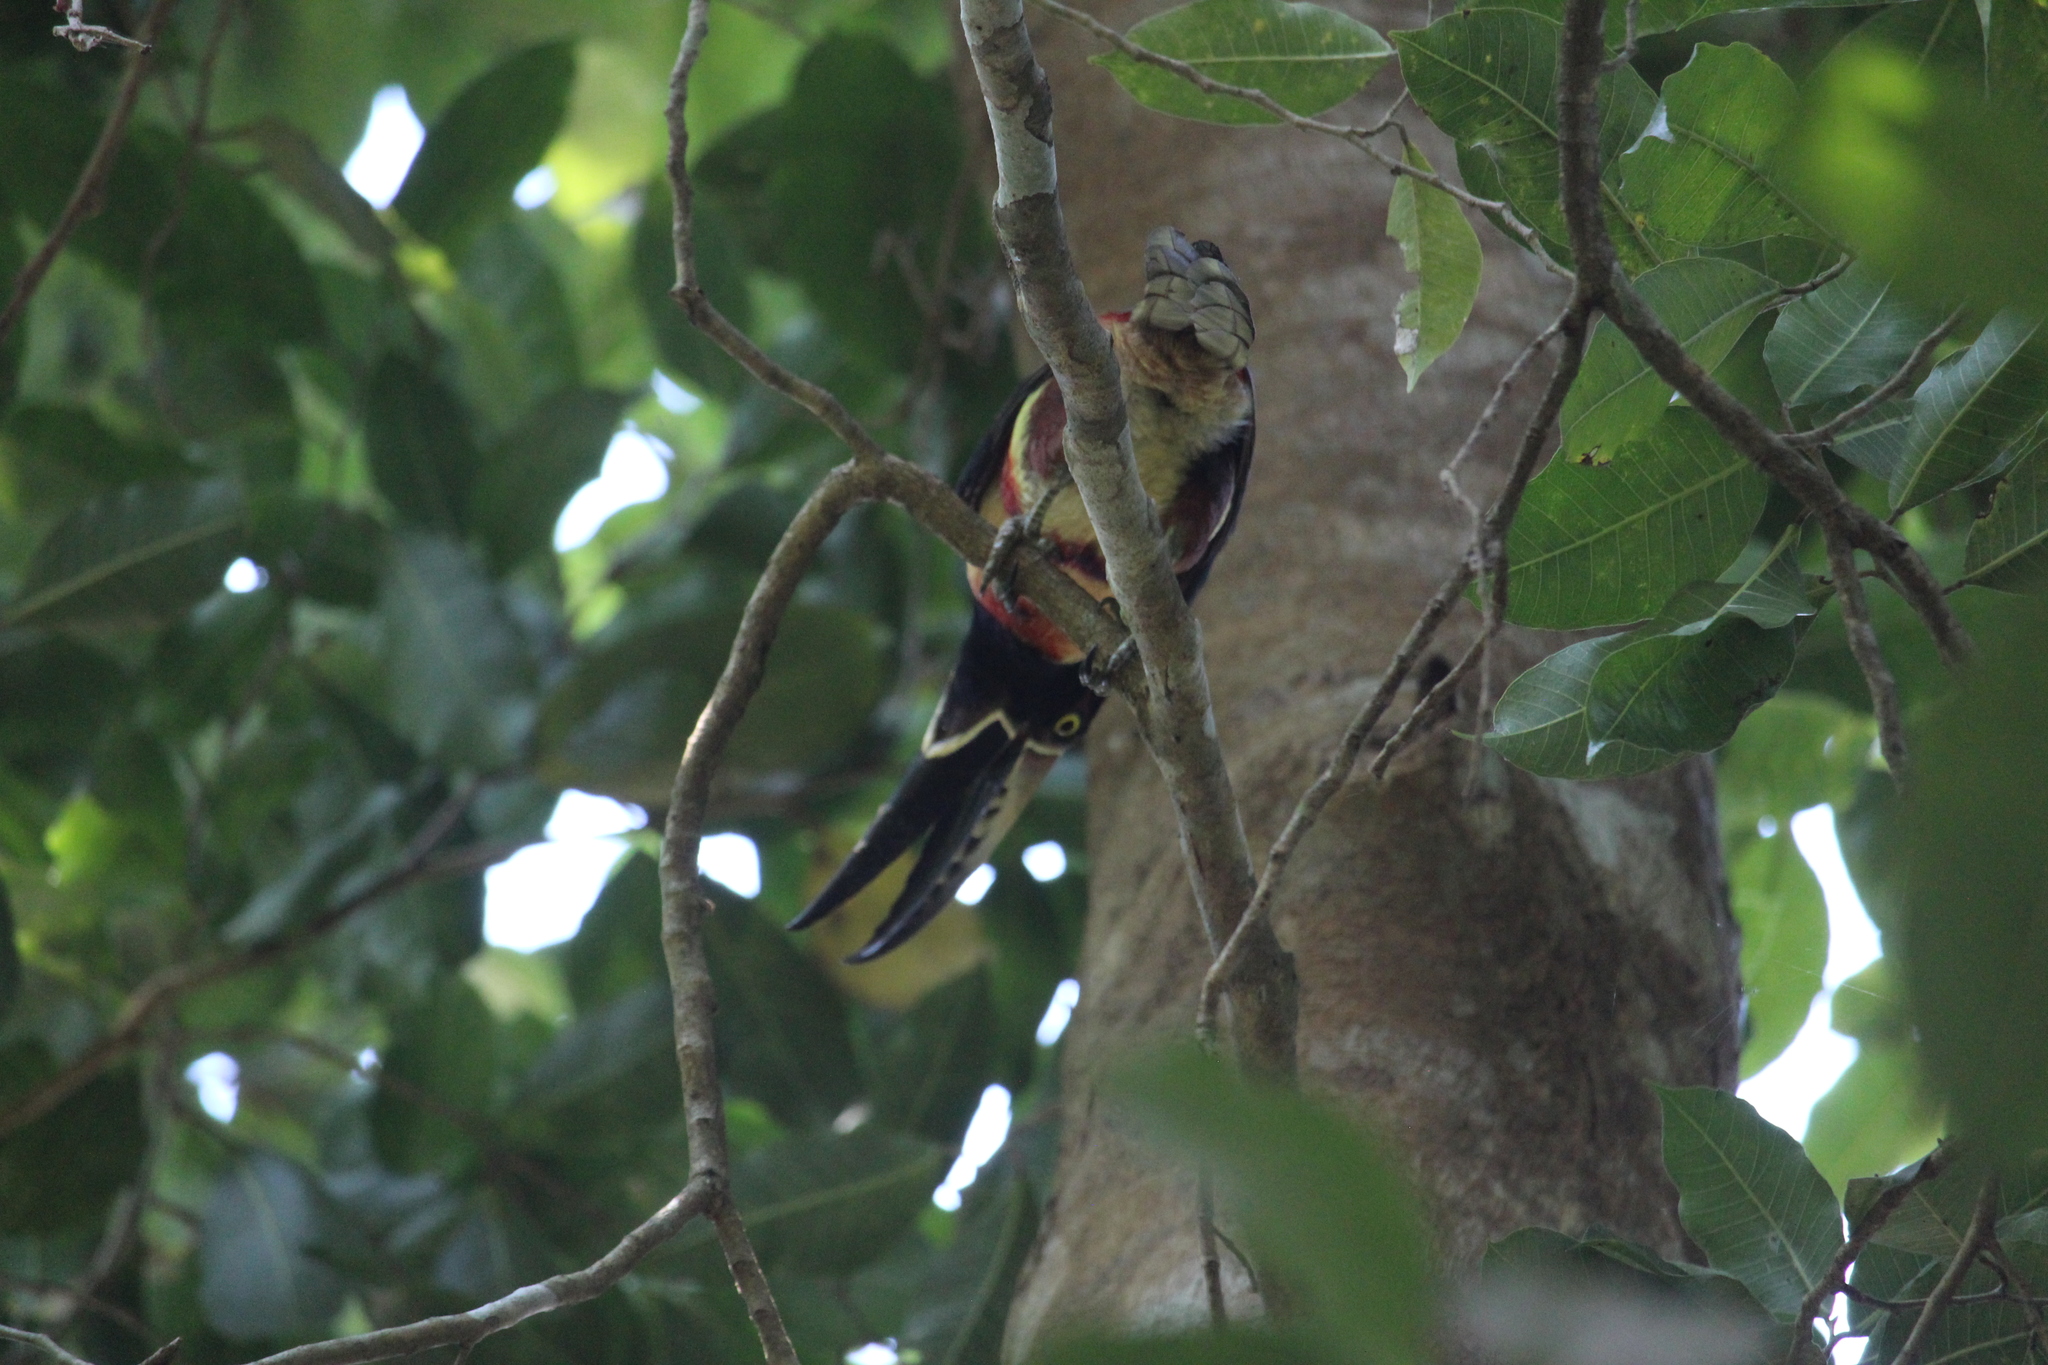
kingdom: Animalia
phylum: Chordata
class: Aves
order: Piciformes
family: Ramphastidae
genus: Pteroglossus
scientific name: Pteroglossus torquatus
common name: Collared aracari
